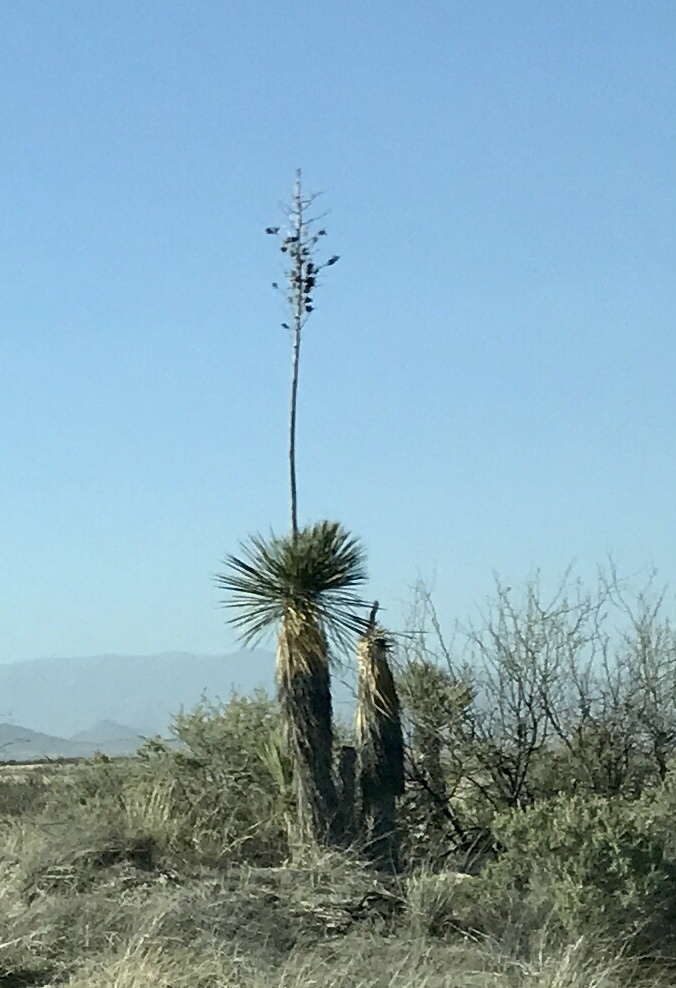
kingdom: Plantae
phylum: Tracheophyta
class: Liliopsida
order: Asparagales
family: Asparagaceae
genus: Yucca
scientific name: Yucca elata
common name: Palmella
